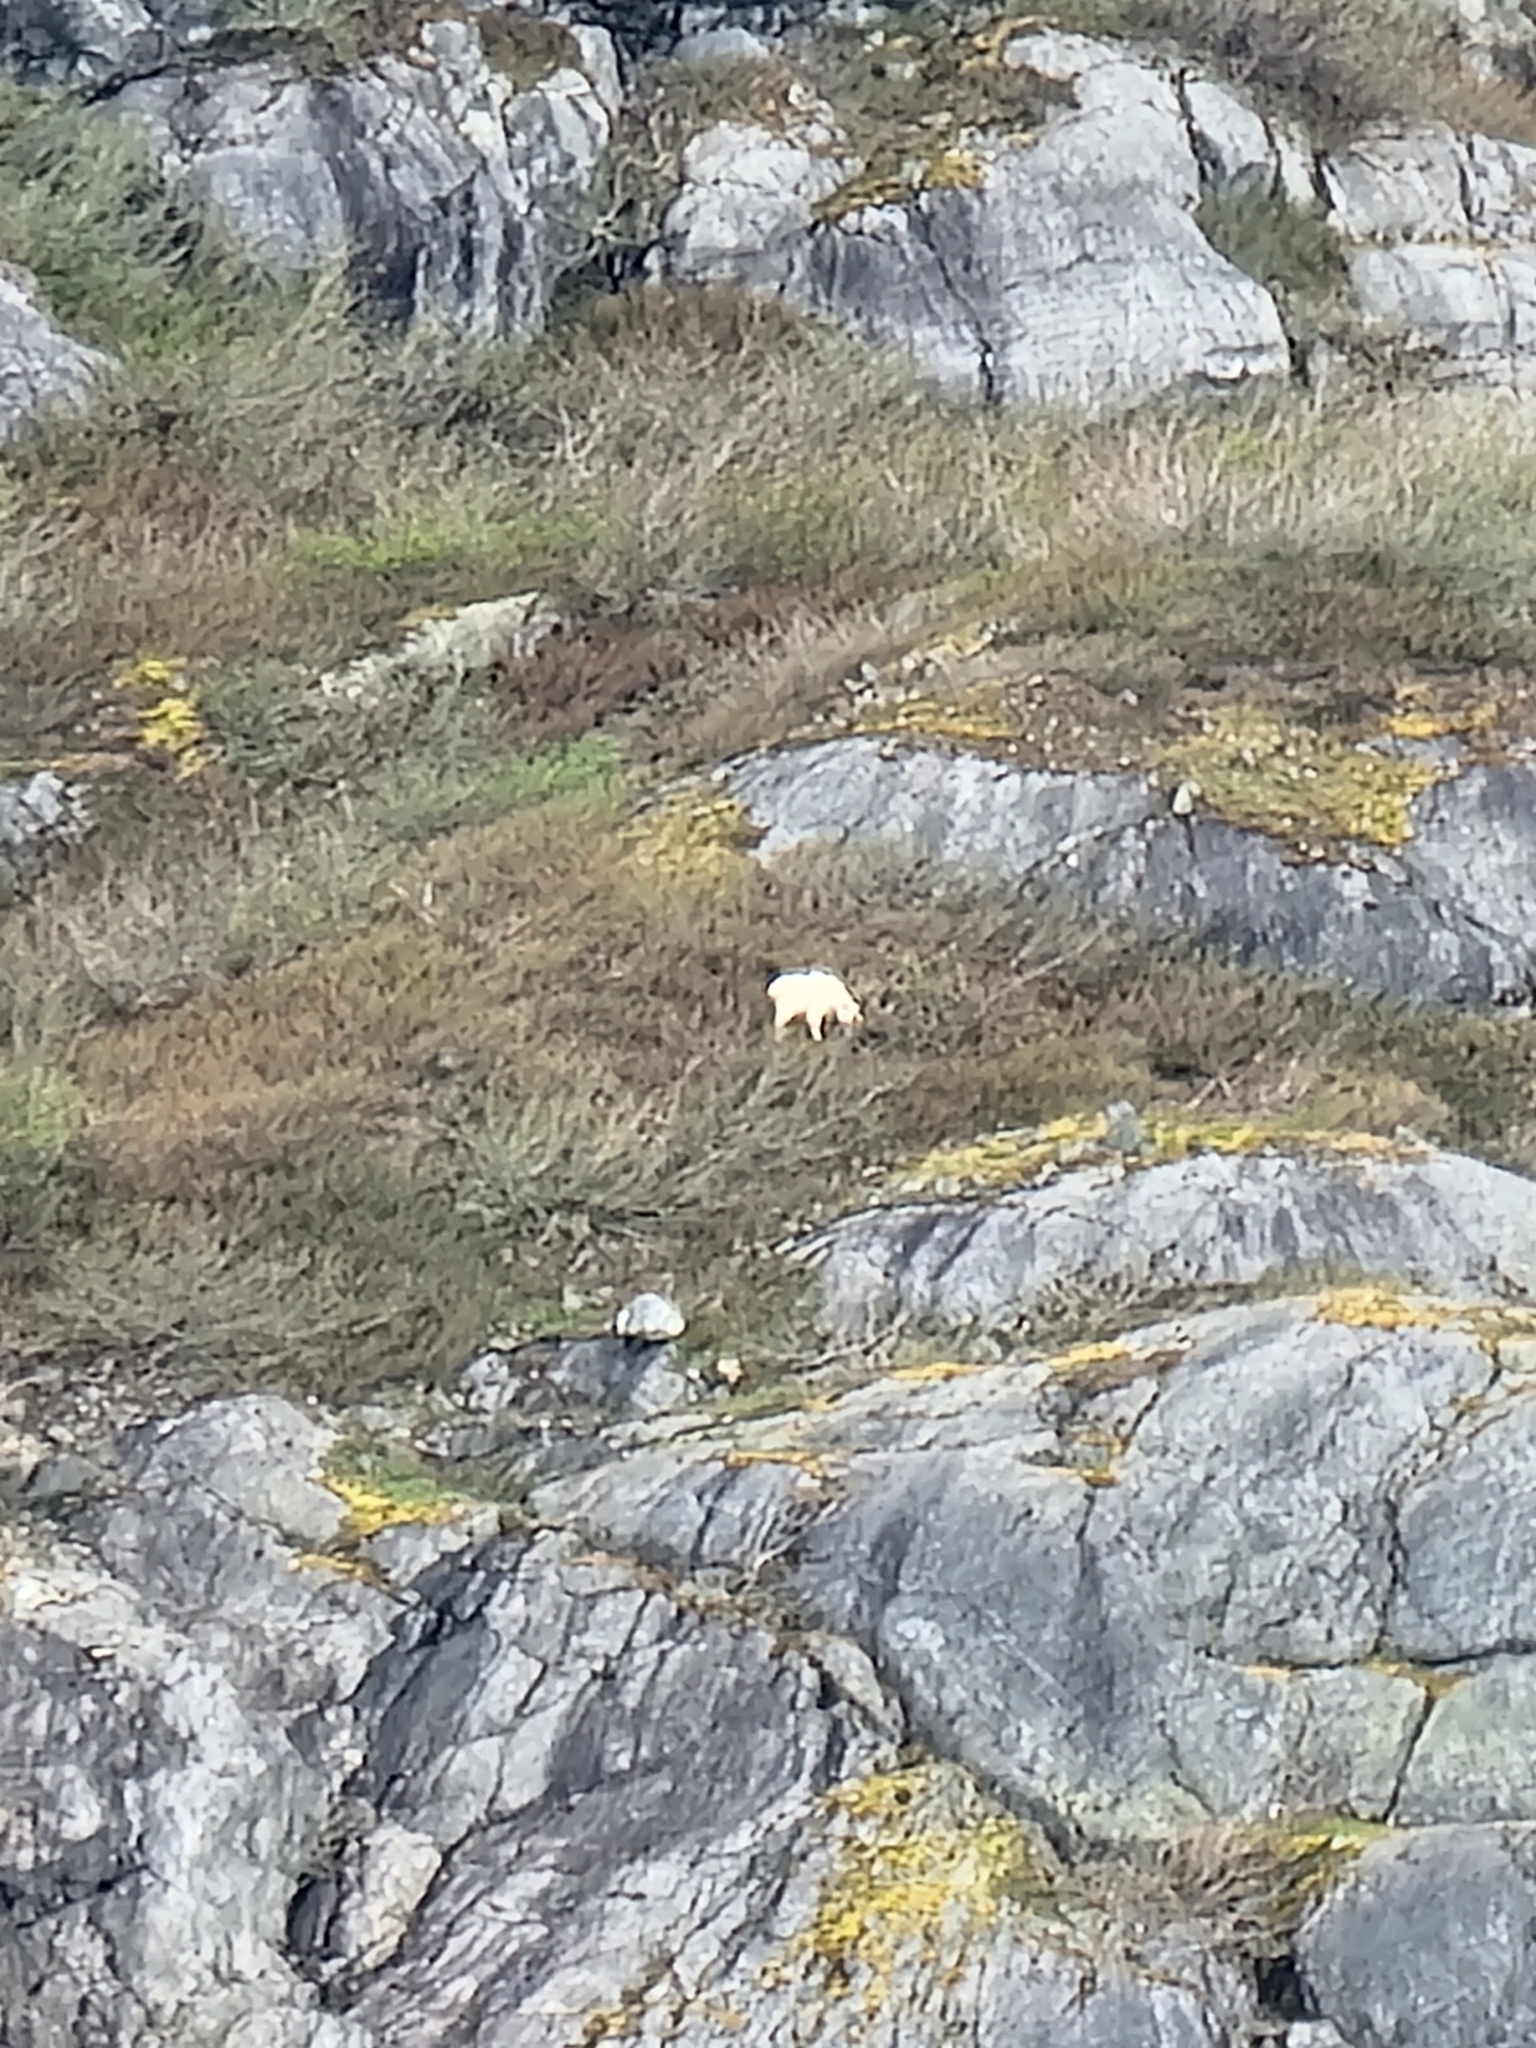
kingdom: Animalia
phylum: Chordata
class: Mammalia
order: Artiodactyla
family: Bovidae
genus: Oreamnos
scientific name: Oreamnos americanus
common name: Mountain goat
